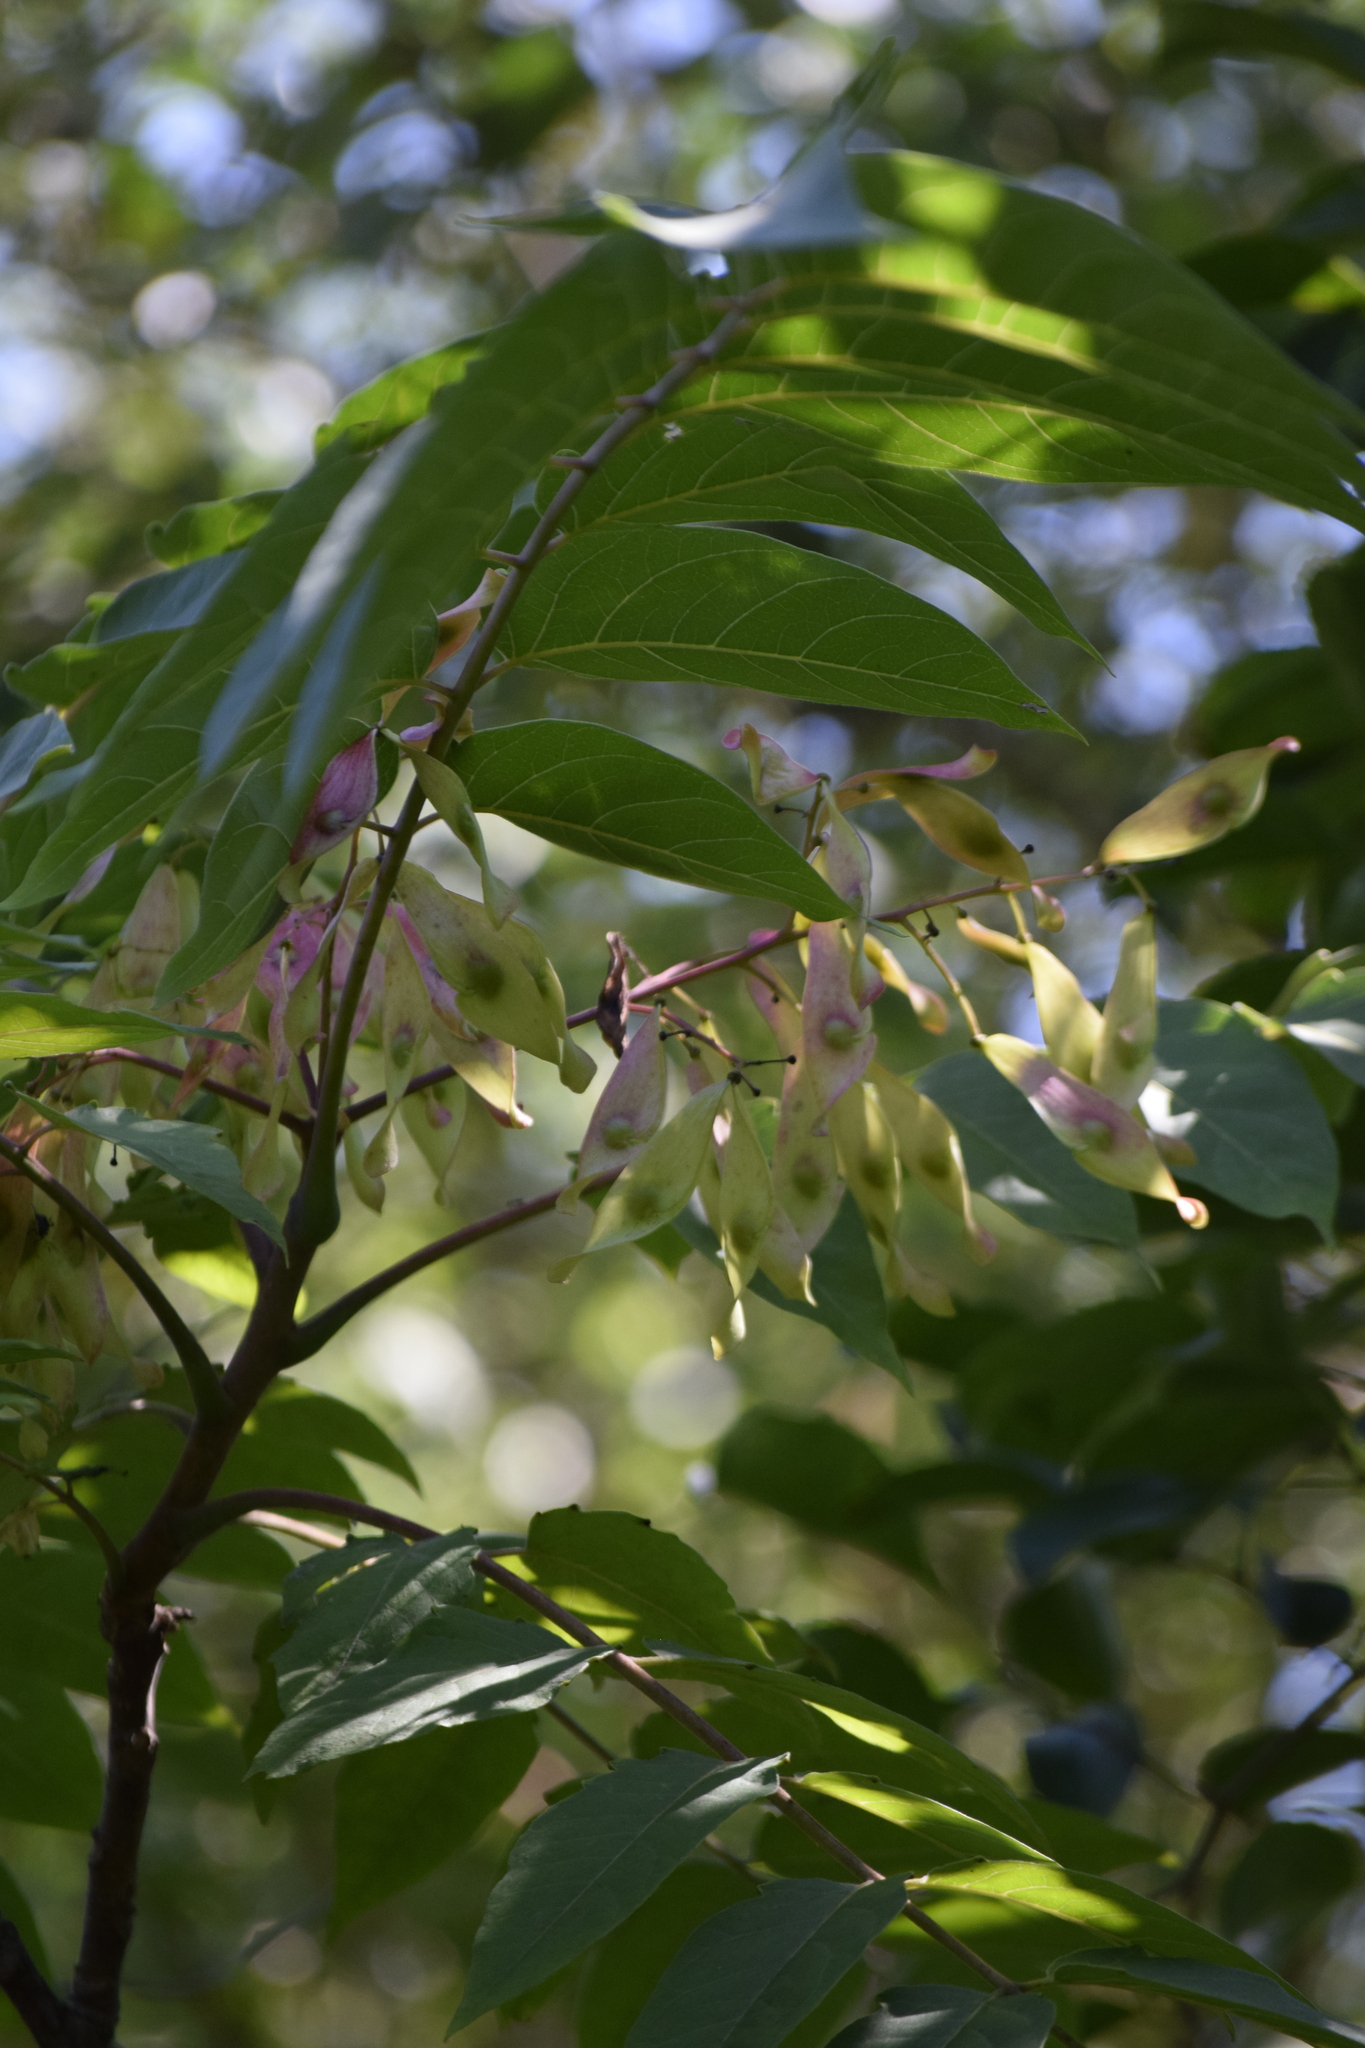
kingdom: Plantae
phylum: Tracheophyta
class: Magnoliopsida
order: Sapindales
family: Simaroubaceae
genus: Ailanthus
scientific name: Ailanthus altissima
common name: Tree-of-heaven
